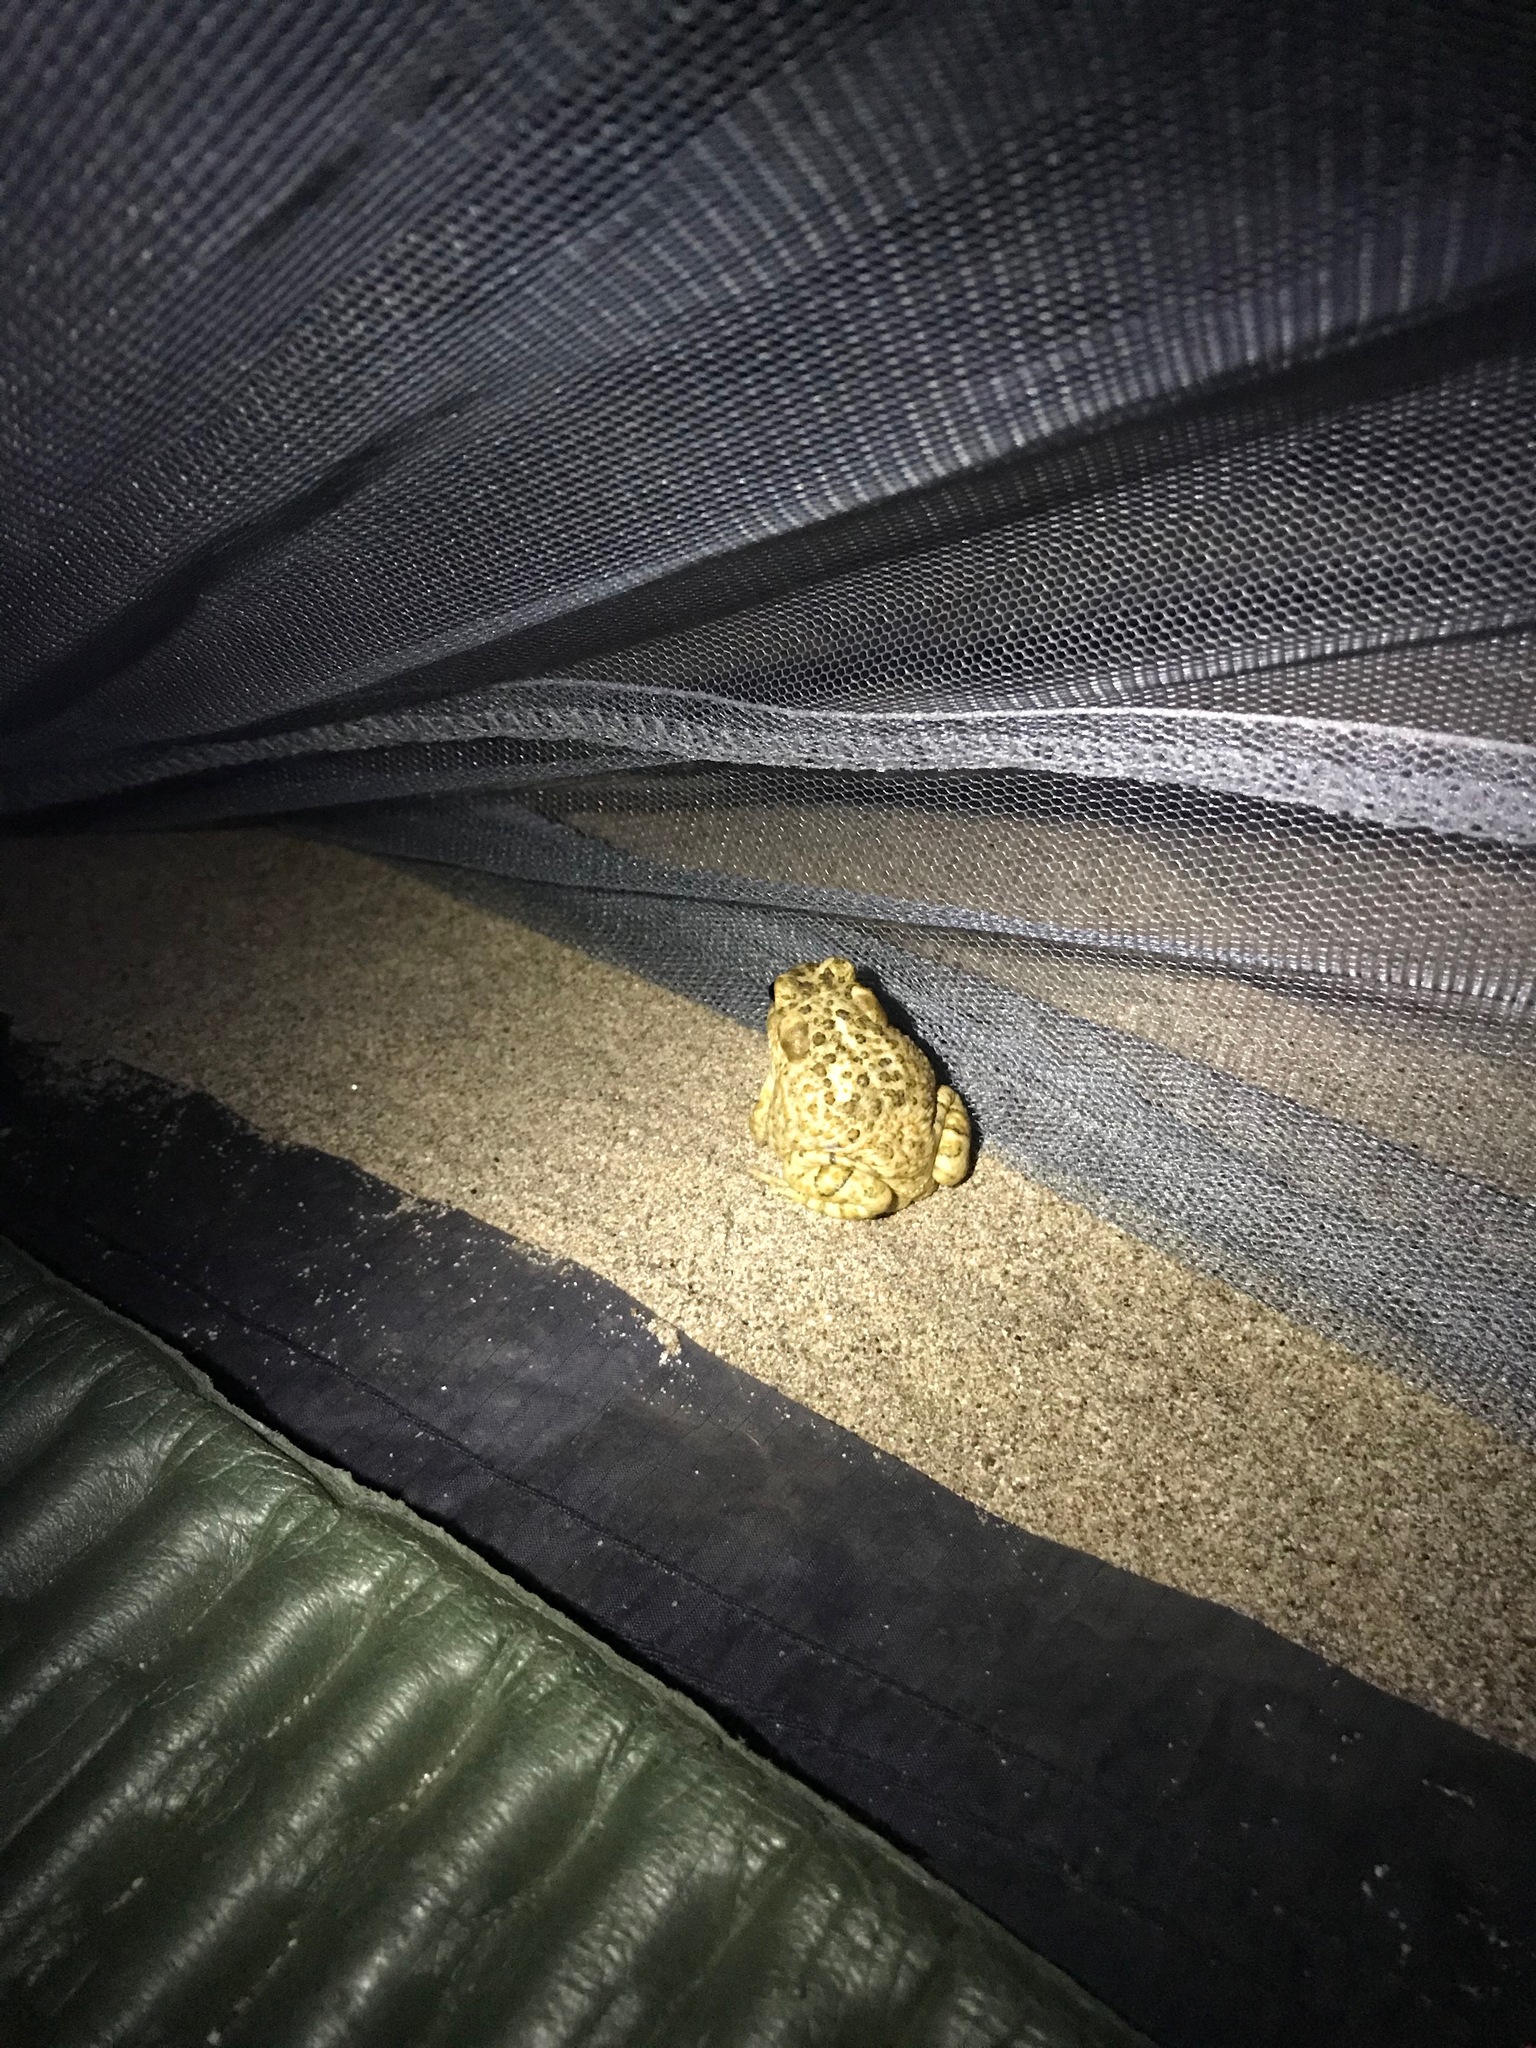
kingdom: Animalia
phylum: Chordata
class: Amphibia
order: Anura
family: Bufonidae
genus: Anaxyrus
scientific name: Anaxyrus californicus
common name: Arroyo toad
